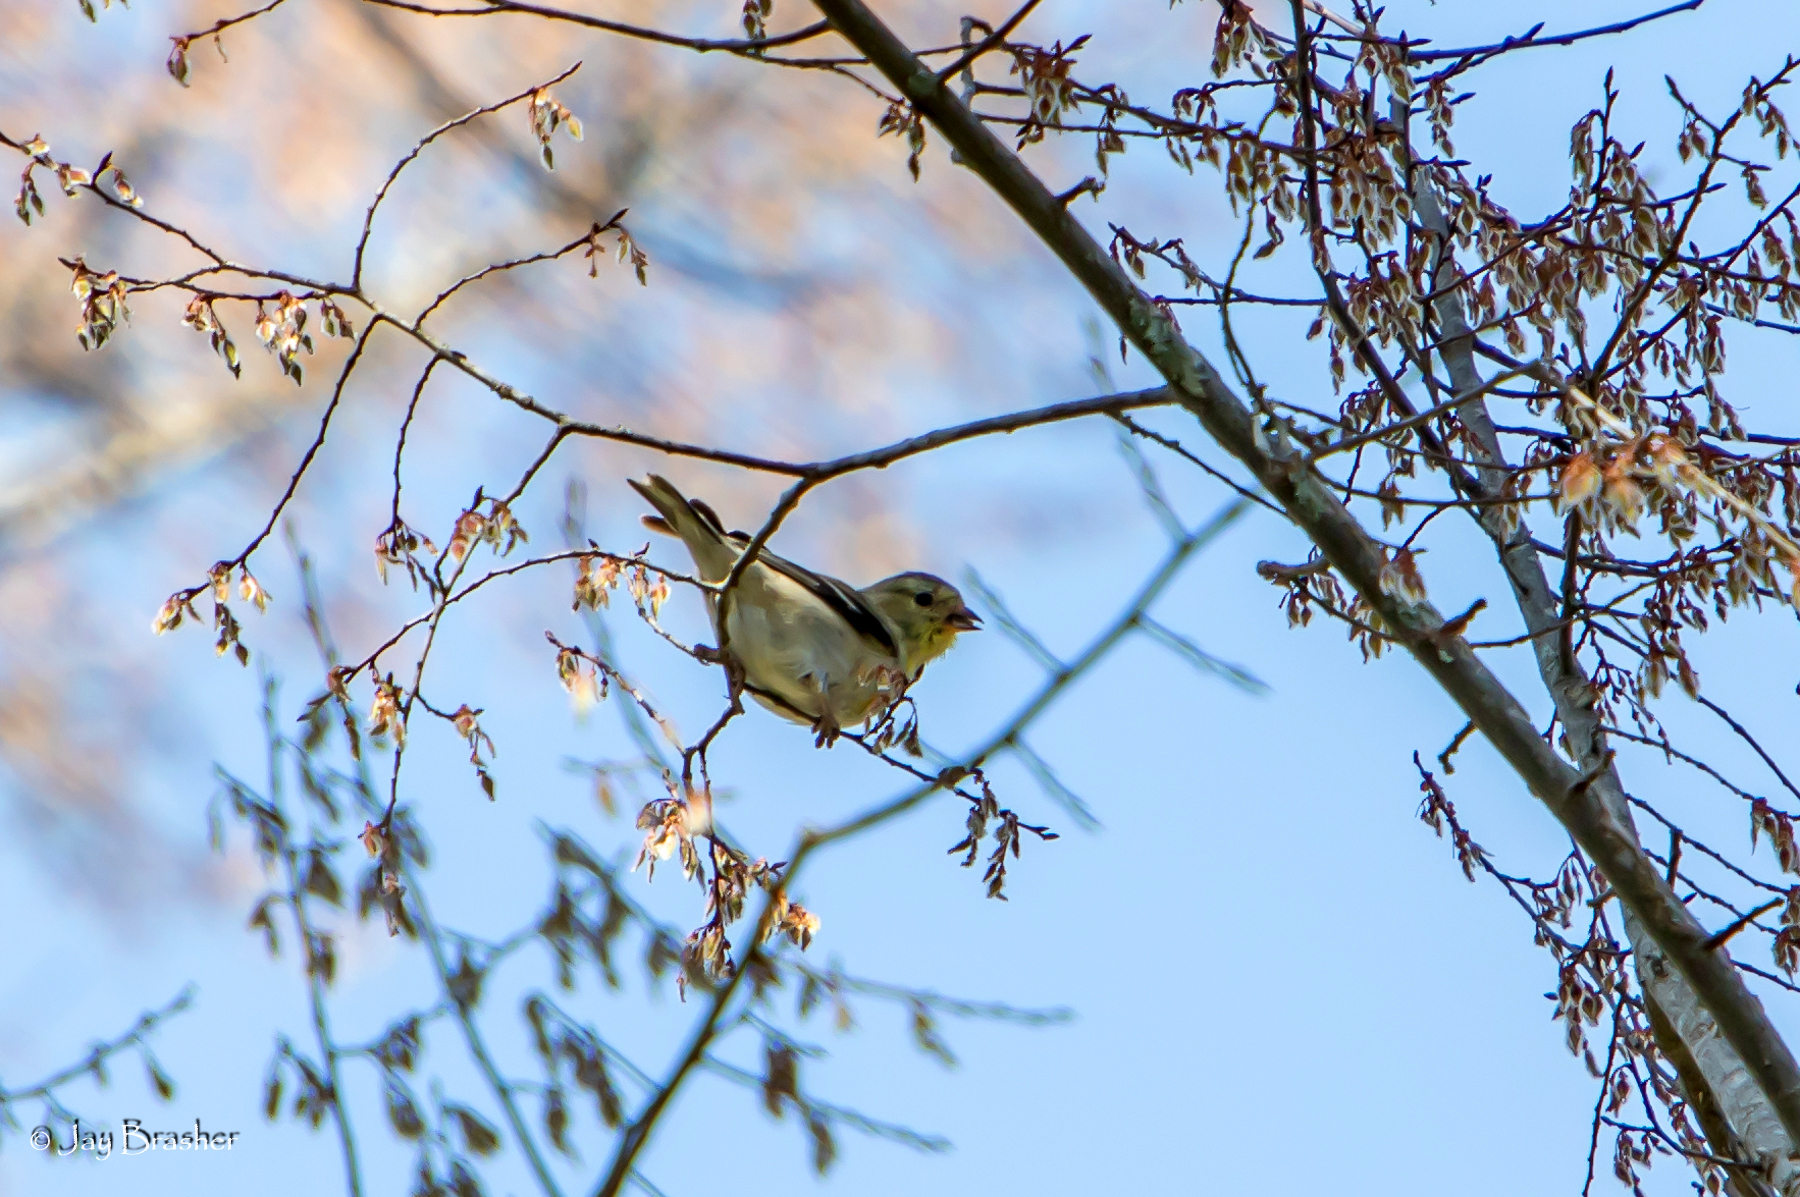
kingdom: Animalia
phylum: Chordata
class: Aves
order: Passeriformes
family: Fringillidae
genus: Spinus
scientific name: Spinus tristis
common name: American goldfinch
